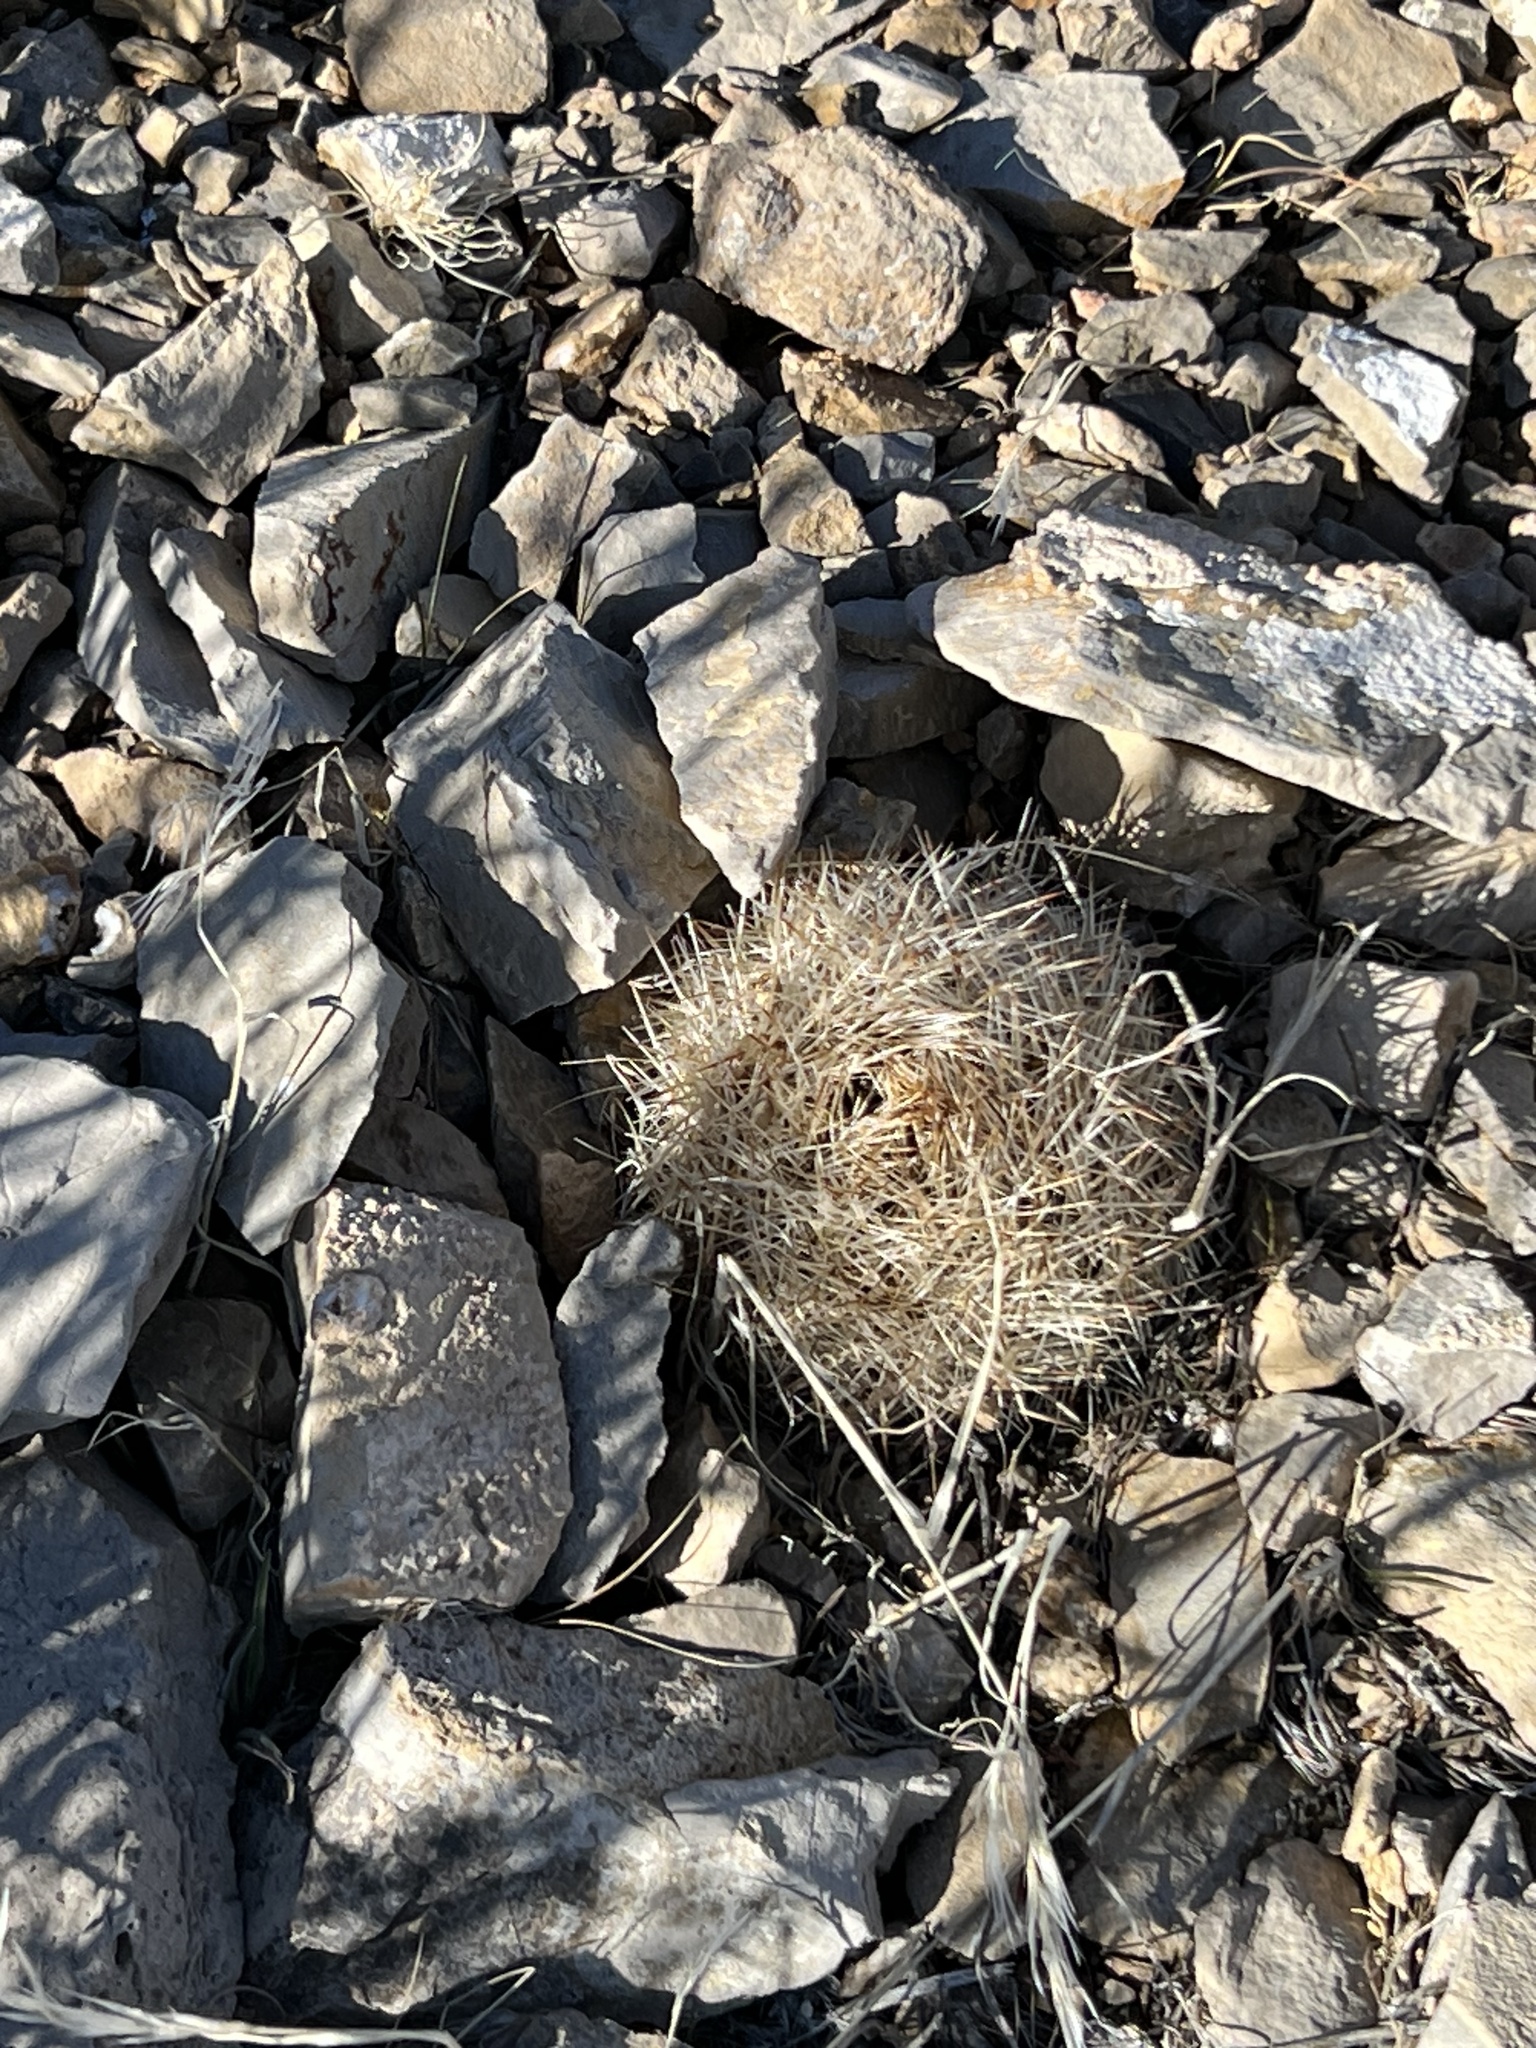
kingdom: Plantae
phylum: Tracheophyta
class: Magnoliopsida
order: Caryophyllales
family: Cactaceae
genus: Pelecyphora
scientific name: Pelecyphora dasyacantha
